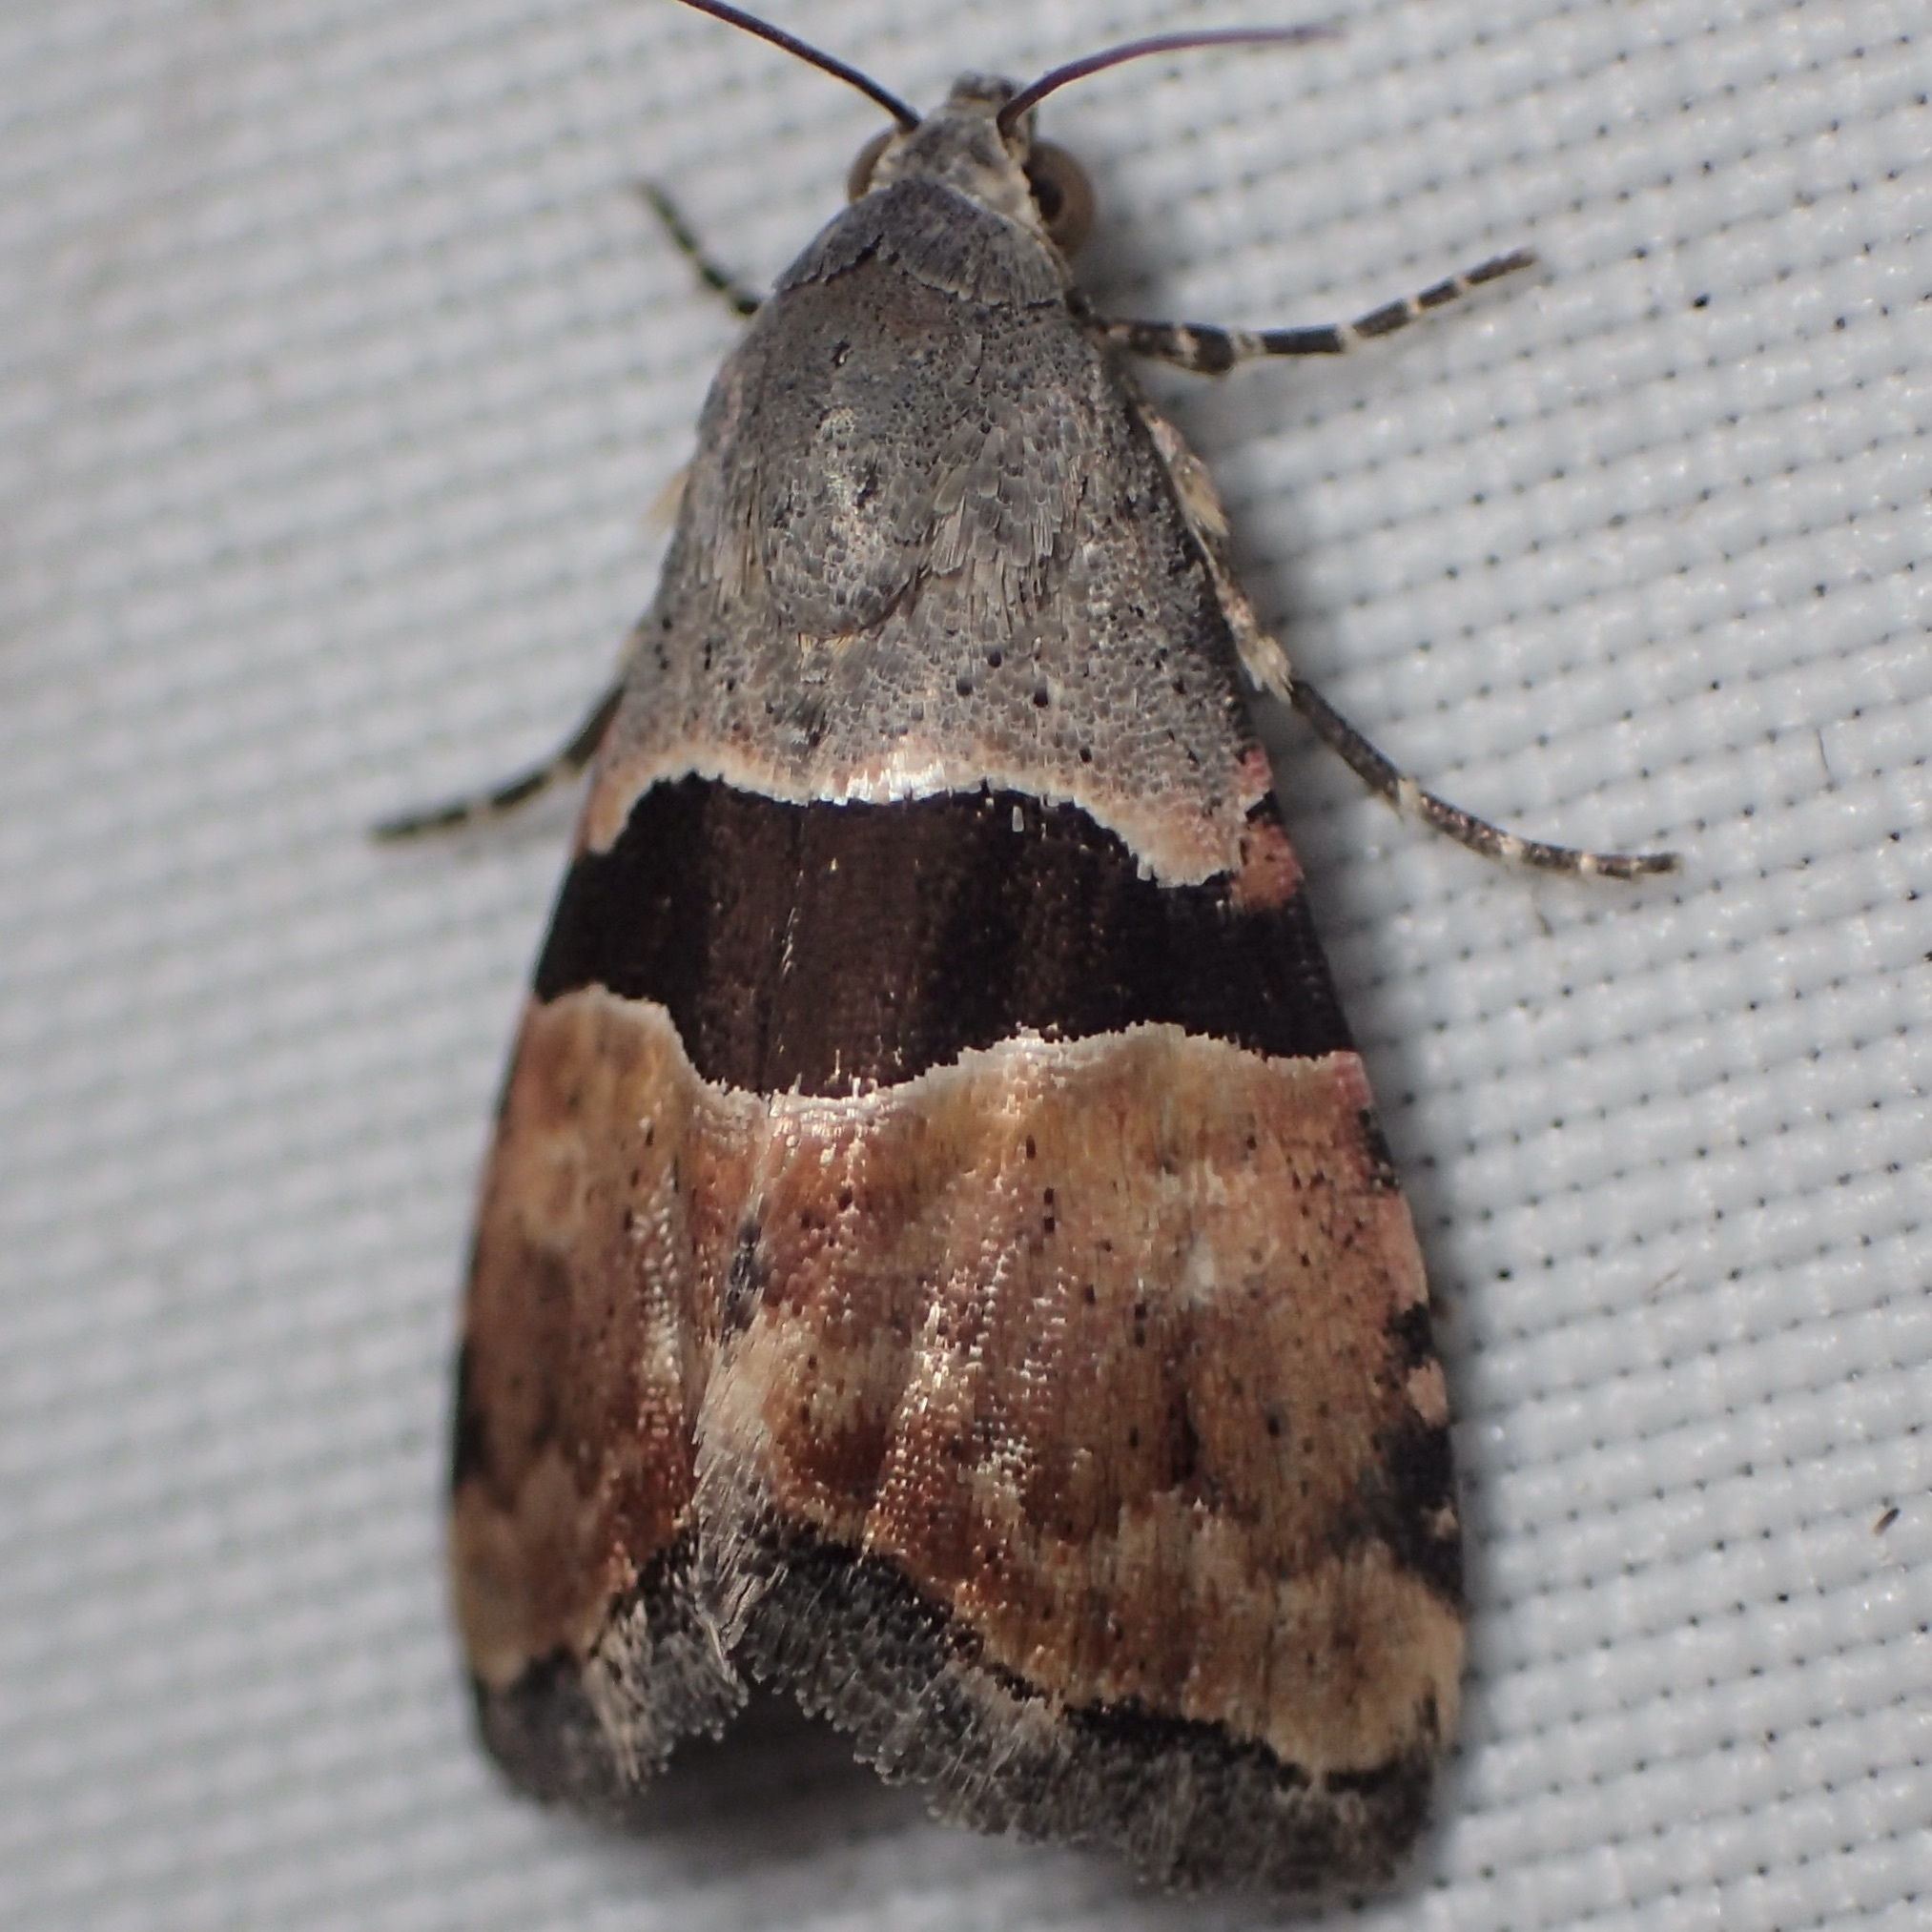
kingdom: Animalia
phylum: Arthropoda
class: Insecta
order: Lepidoptera
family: Noctuidae
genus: Cobubatha
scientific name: Cobubatha lixiva
